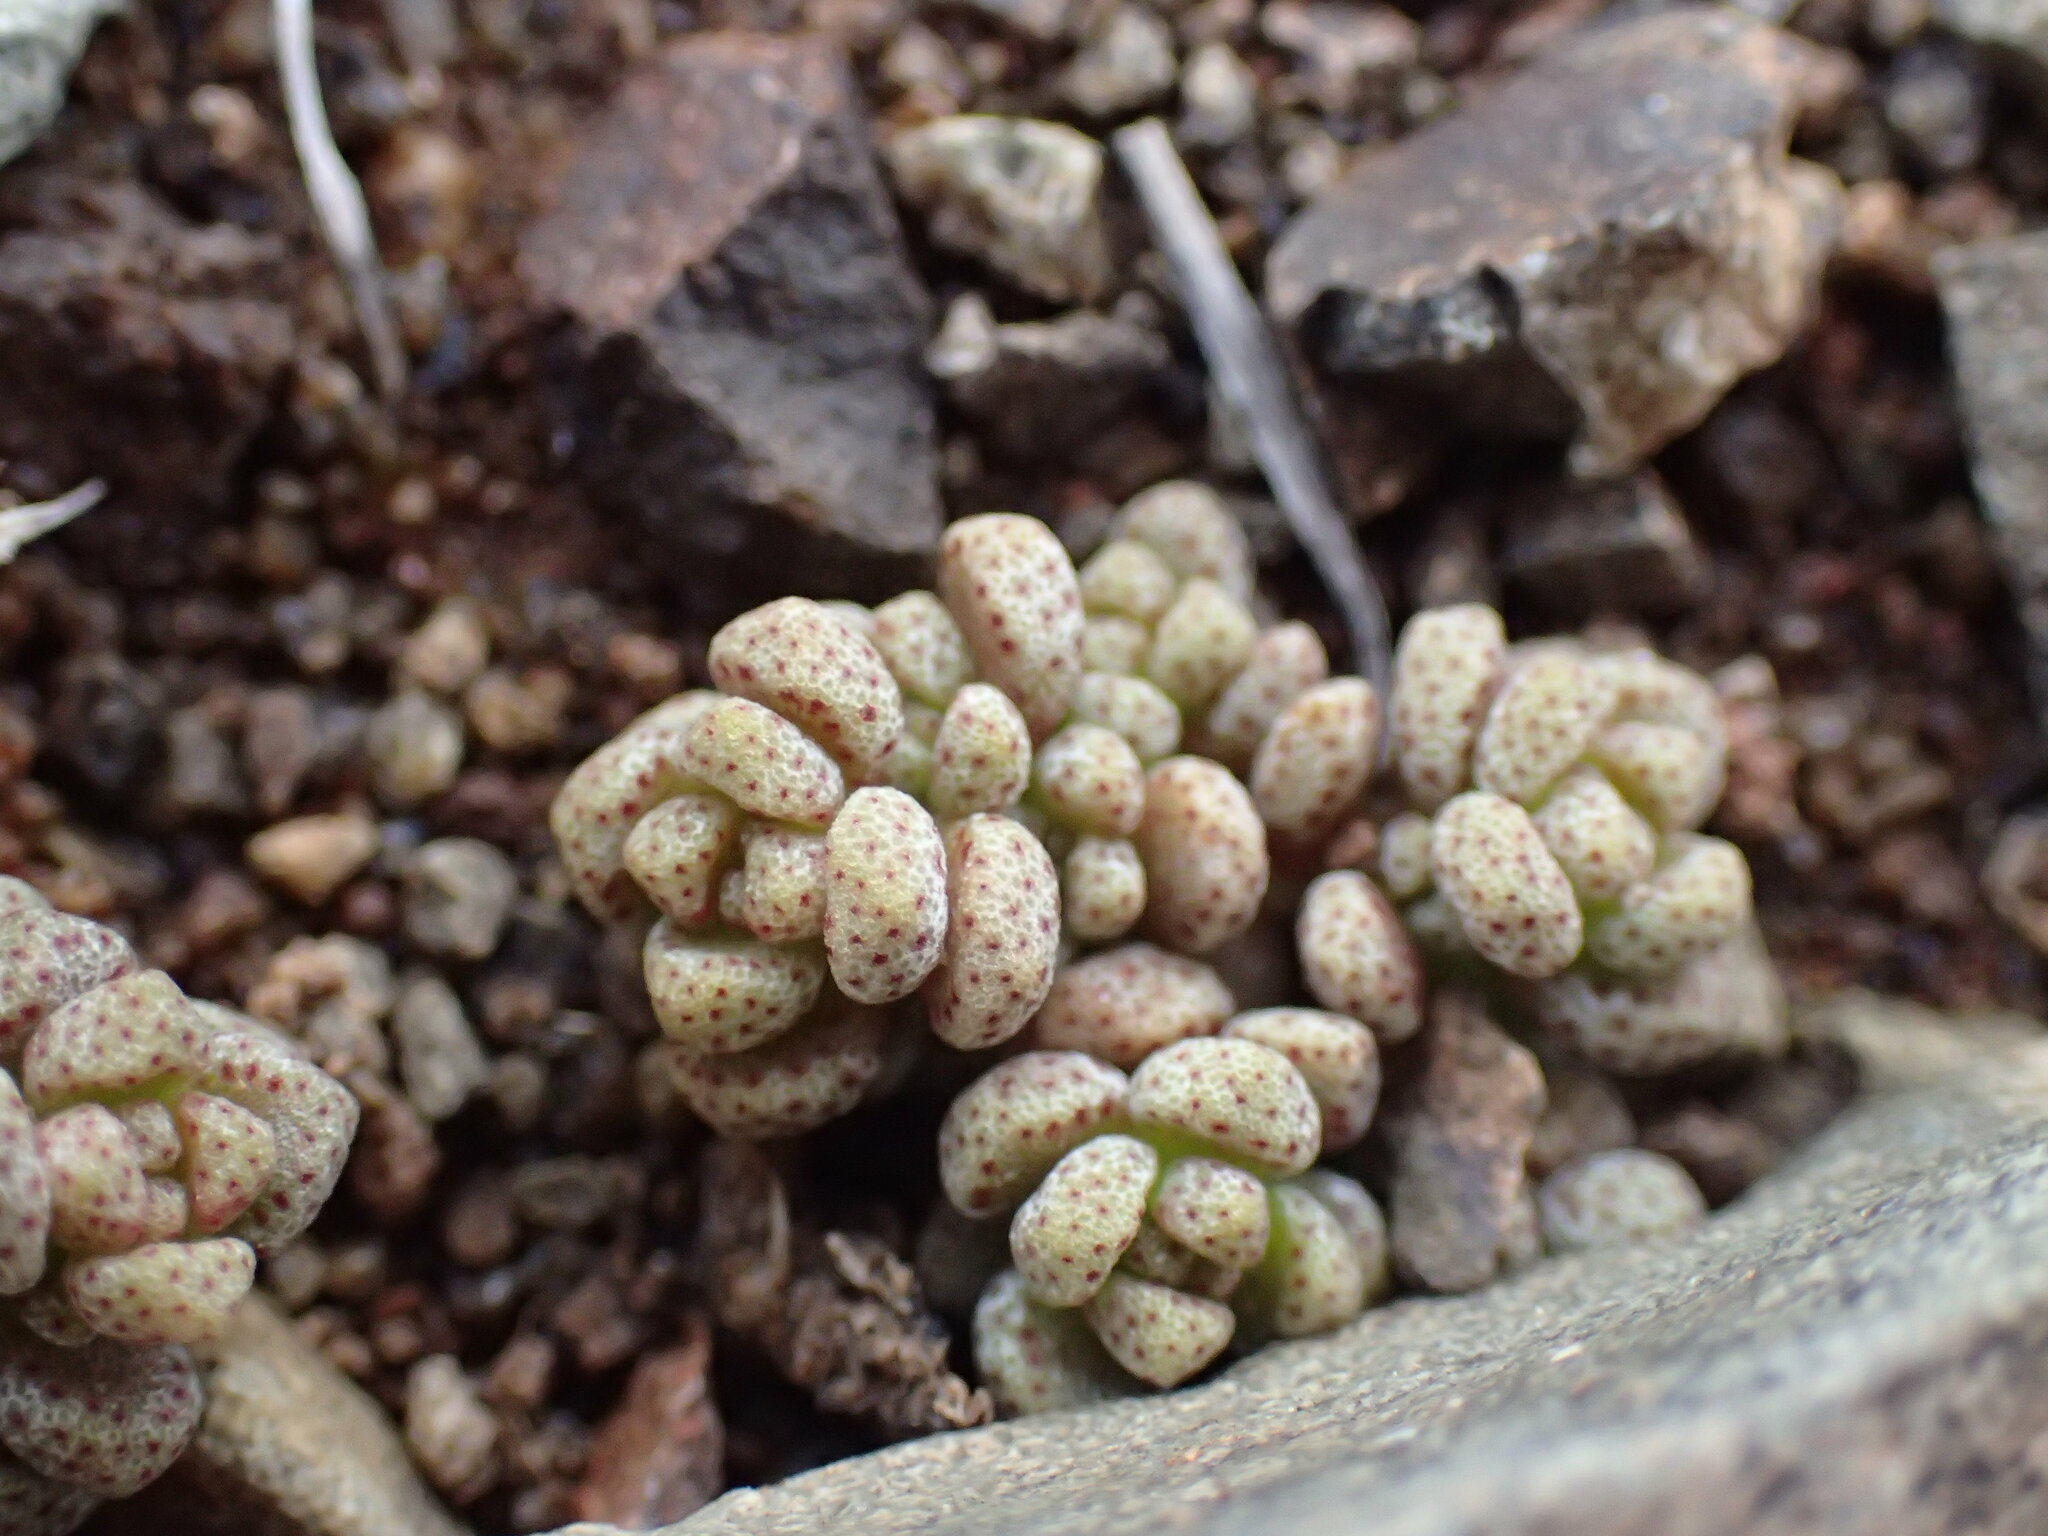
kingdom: Plantae
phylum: Tracheophyta
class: Magnoliopsida
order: Saxifragales
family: Crassulaceae
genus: Crassula
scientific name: Crassula corallina
